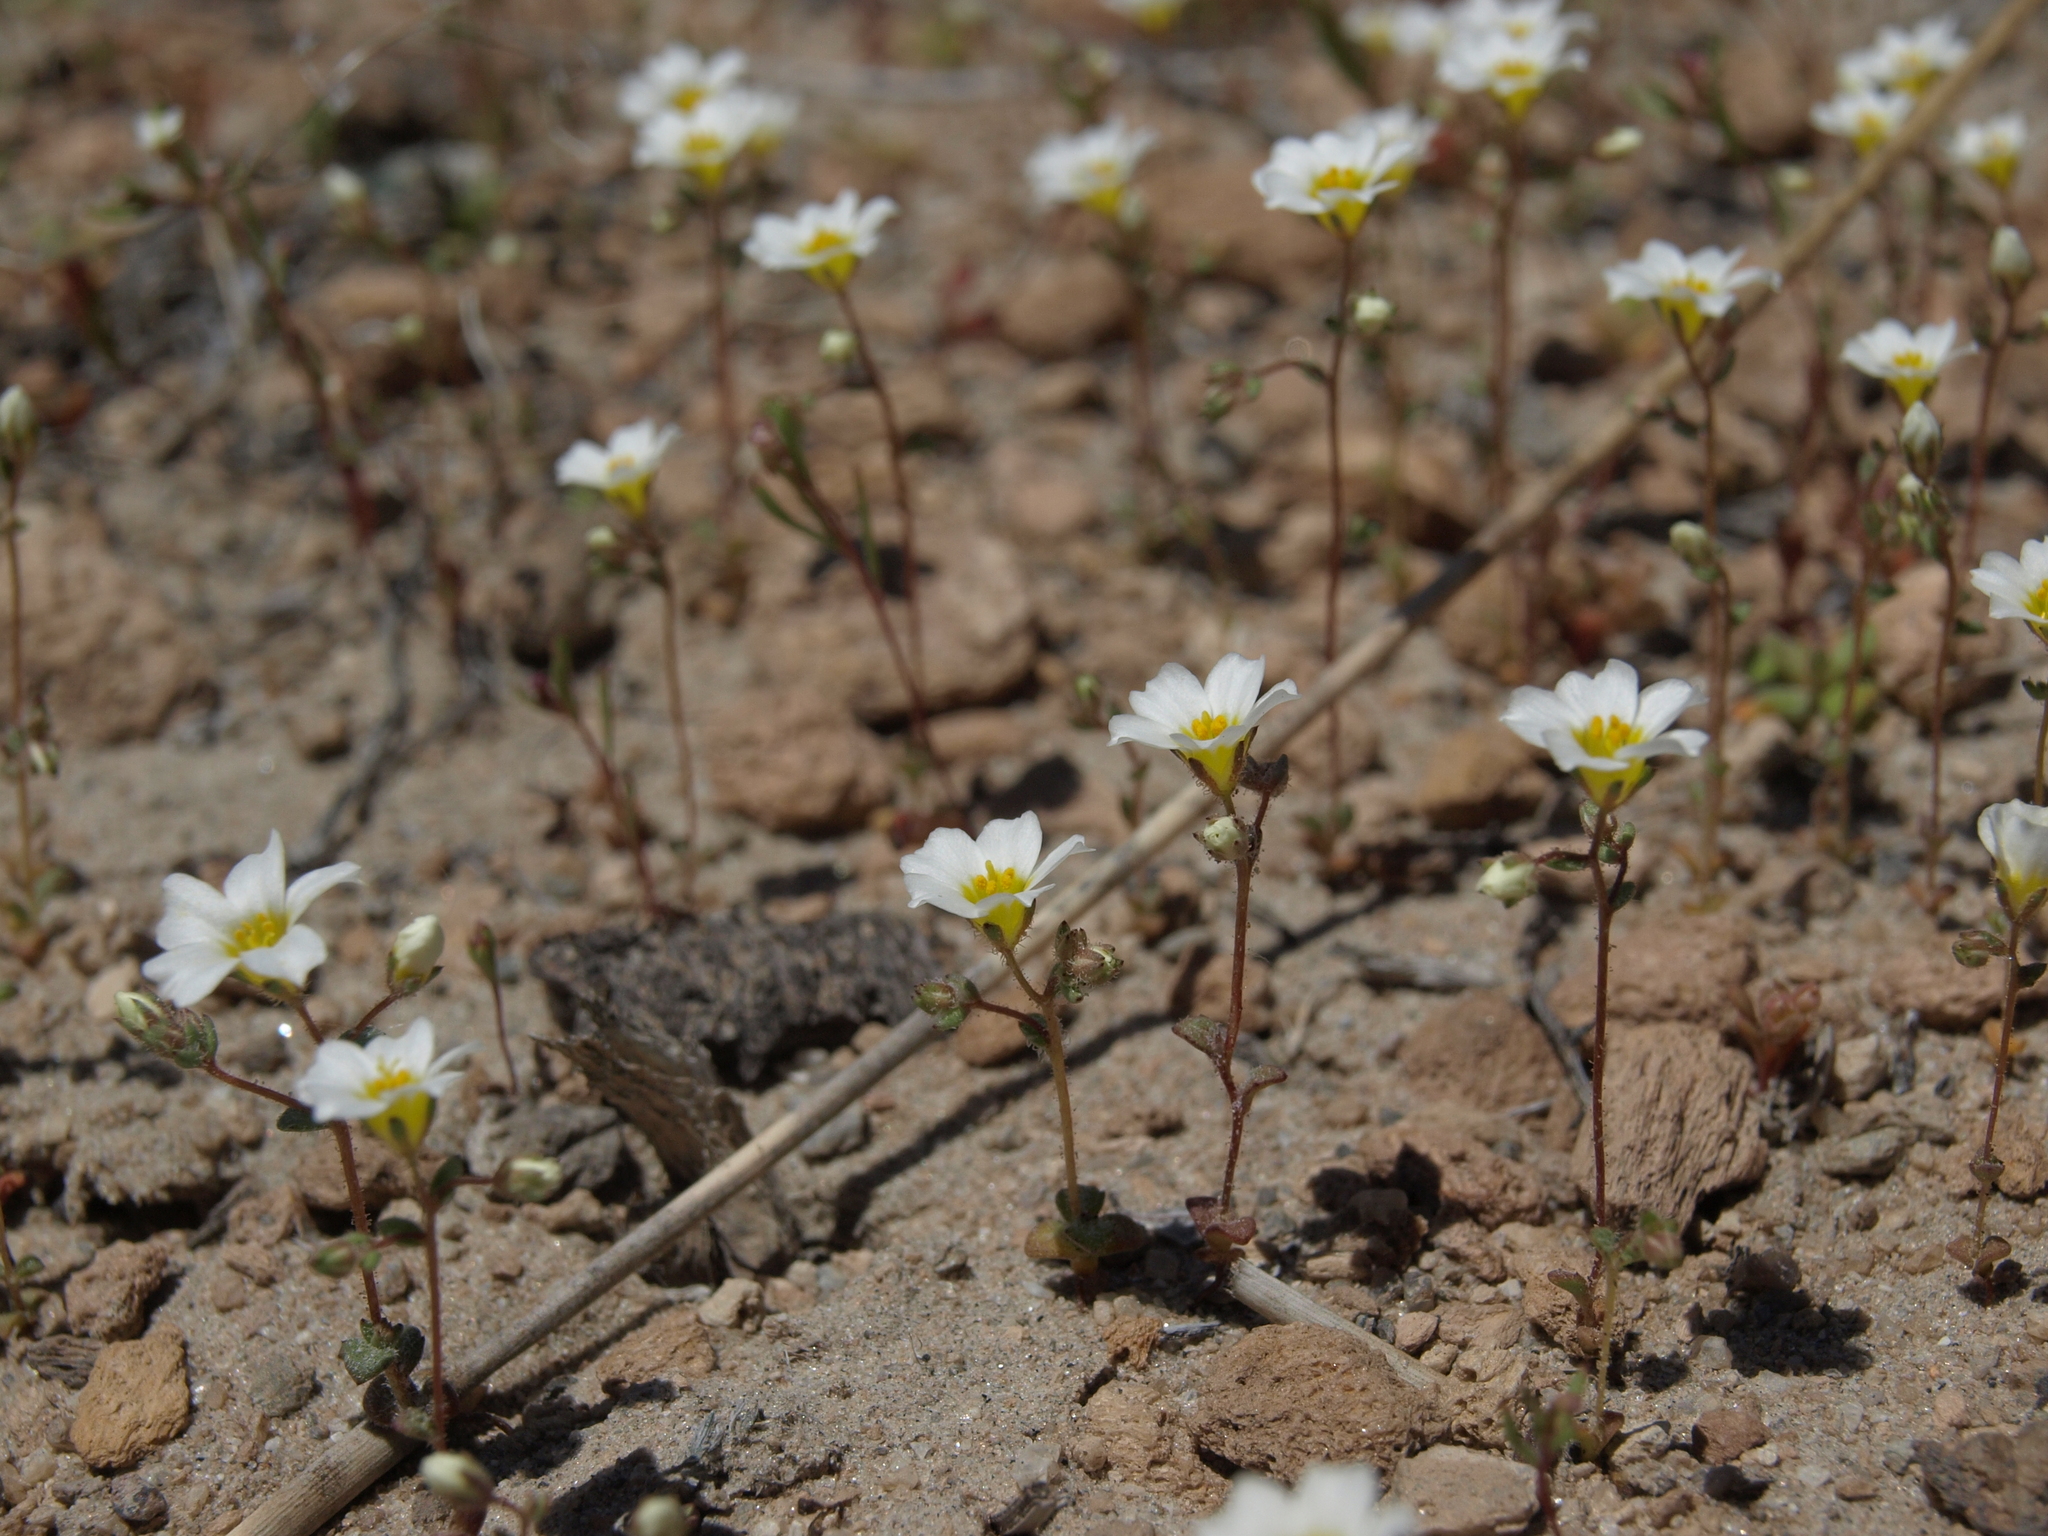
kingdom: Plantae
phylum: Tracheophyta
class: Magnoliopsida
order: Ericales
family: Polemoniaceae
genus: Linanthus
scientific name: Linanthus inyoensis
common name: Inyo gilia
